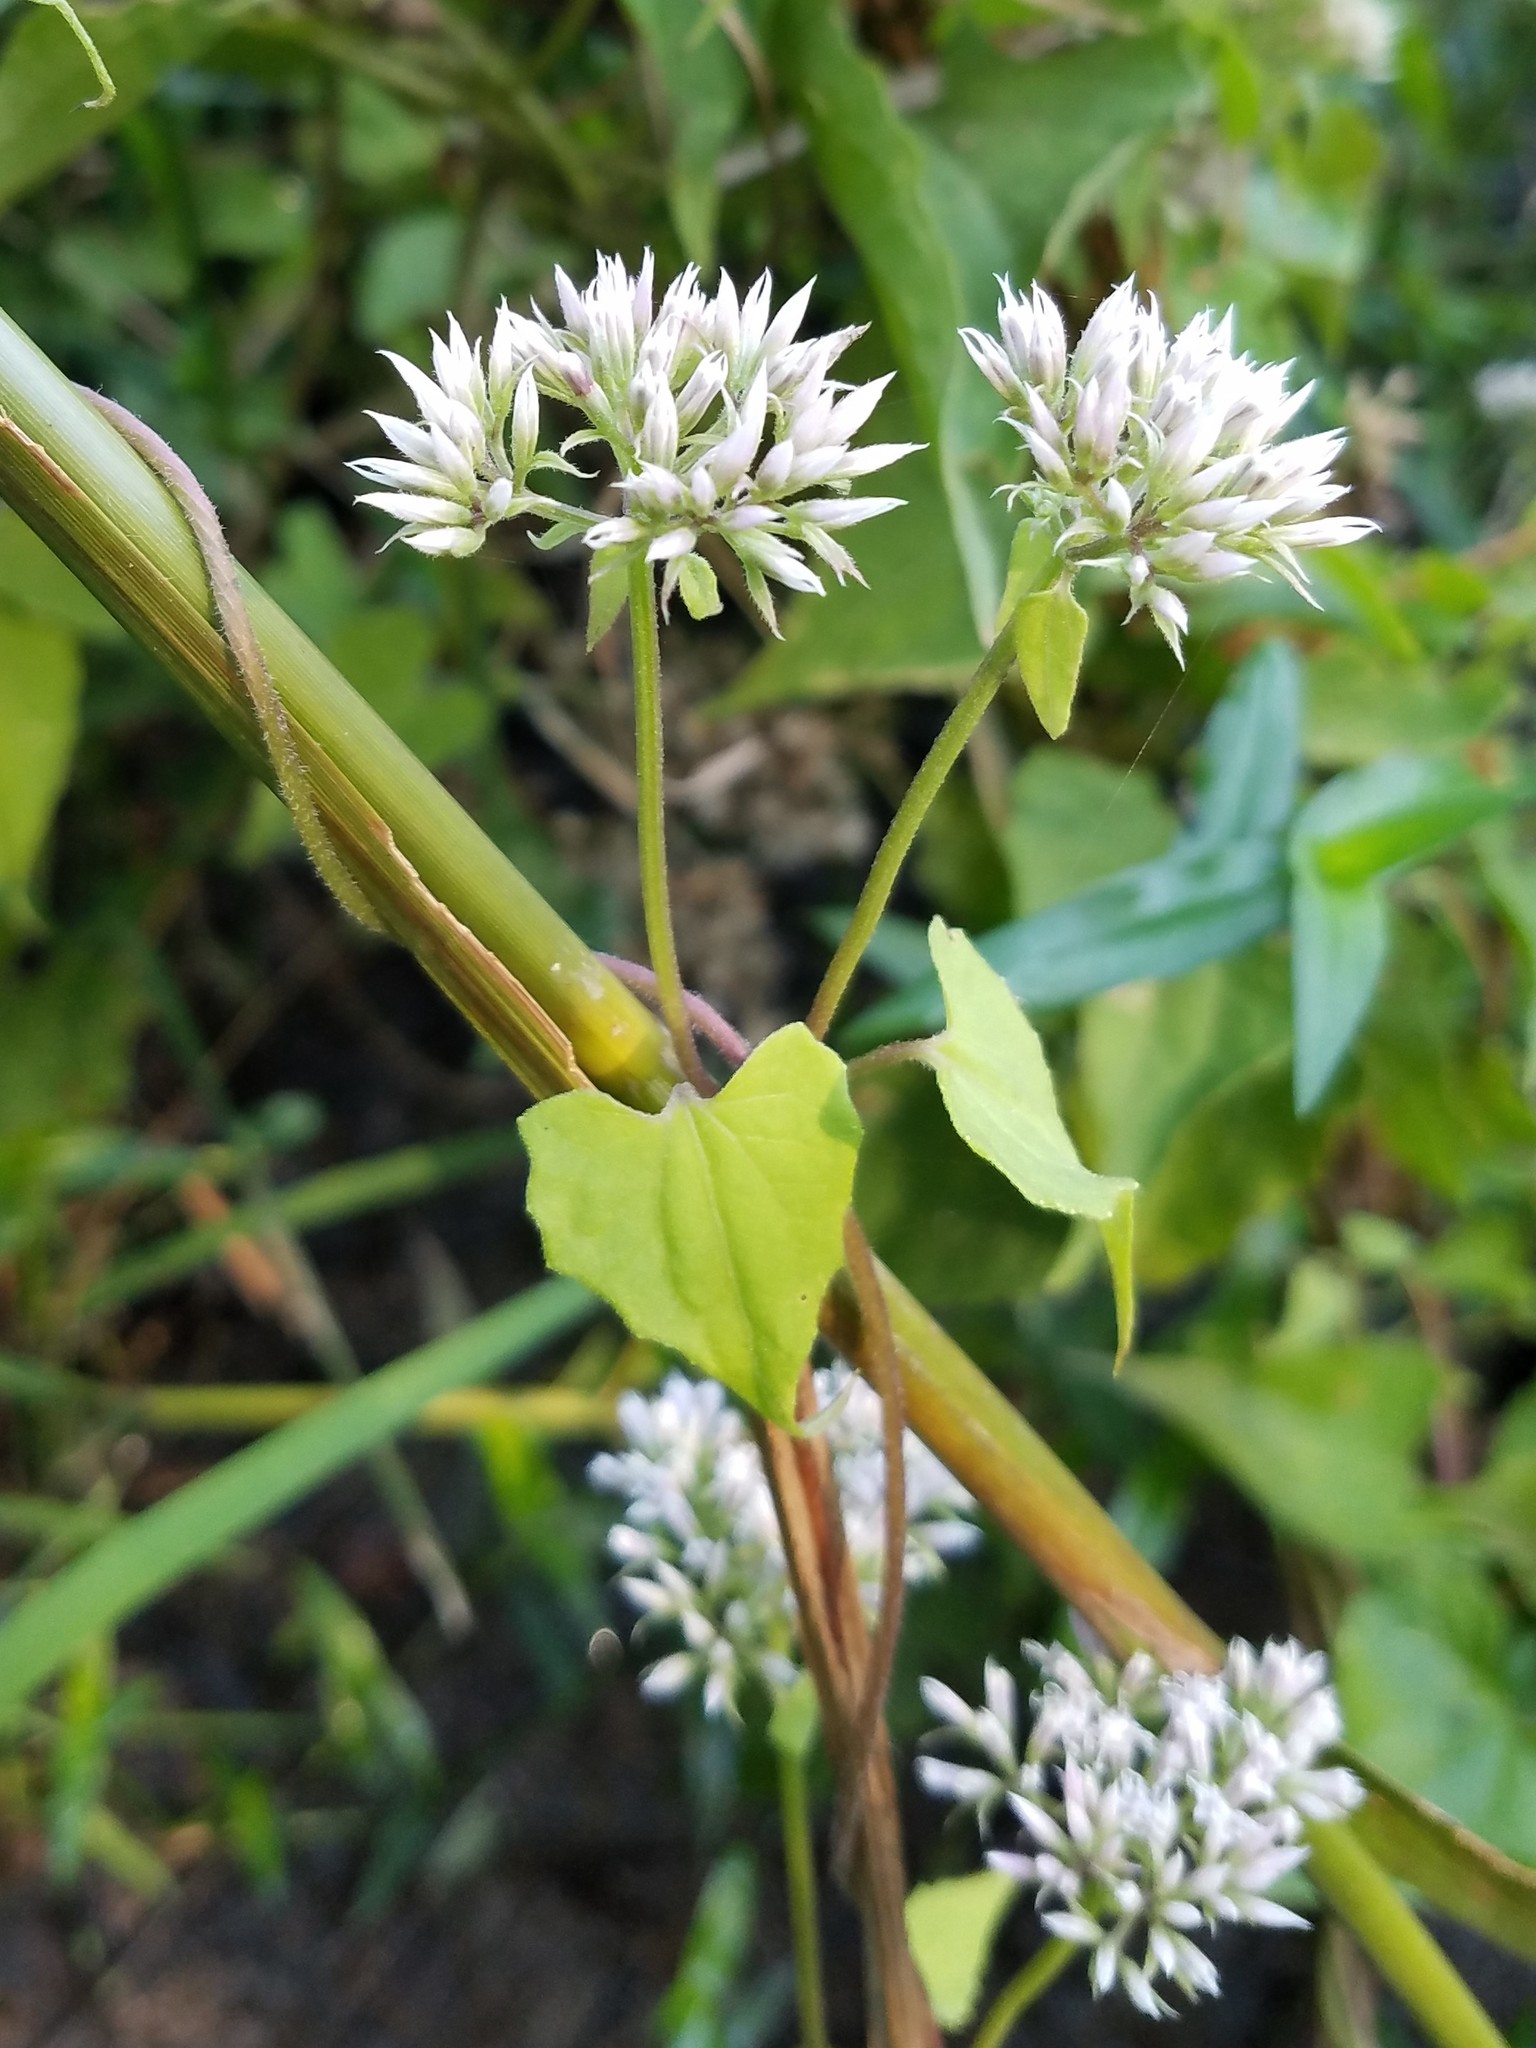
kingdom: Plantae
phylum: Tracheophyta
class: Magnoliopsida
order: Asterales
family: Asteraceae
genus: Mikania
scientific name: Mikania scandens
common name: Climbing hempvine
